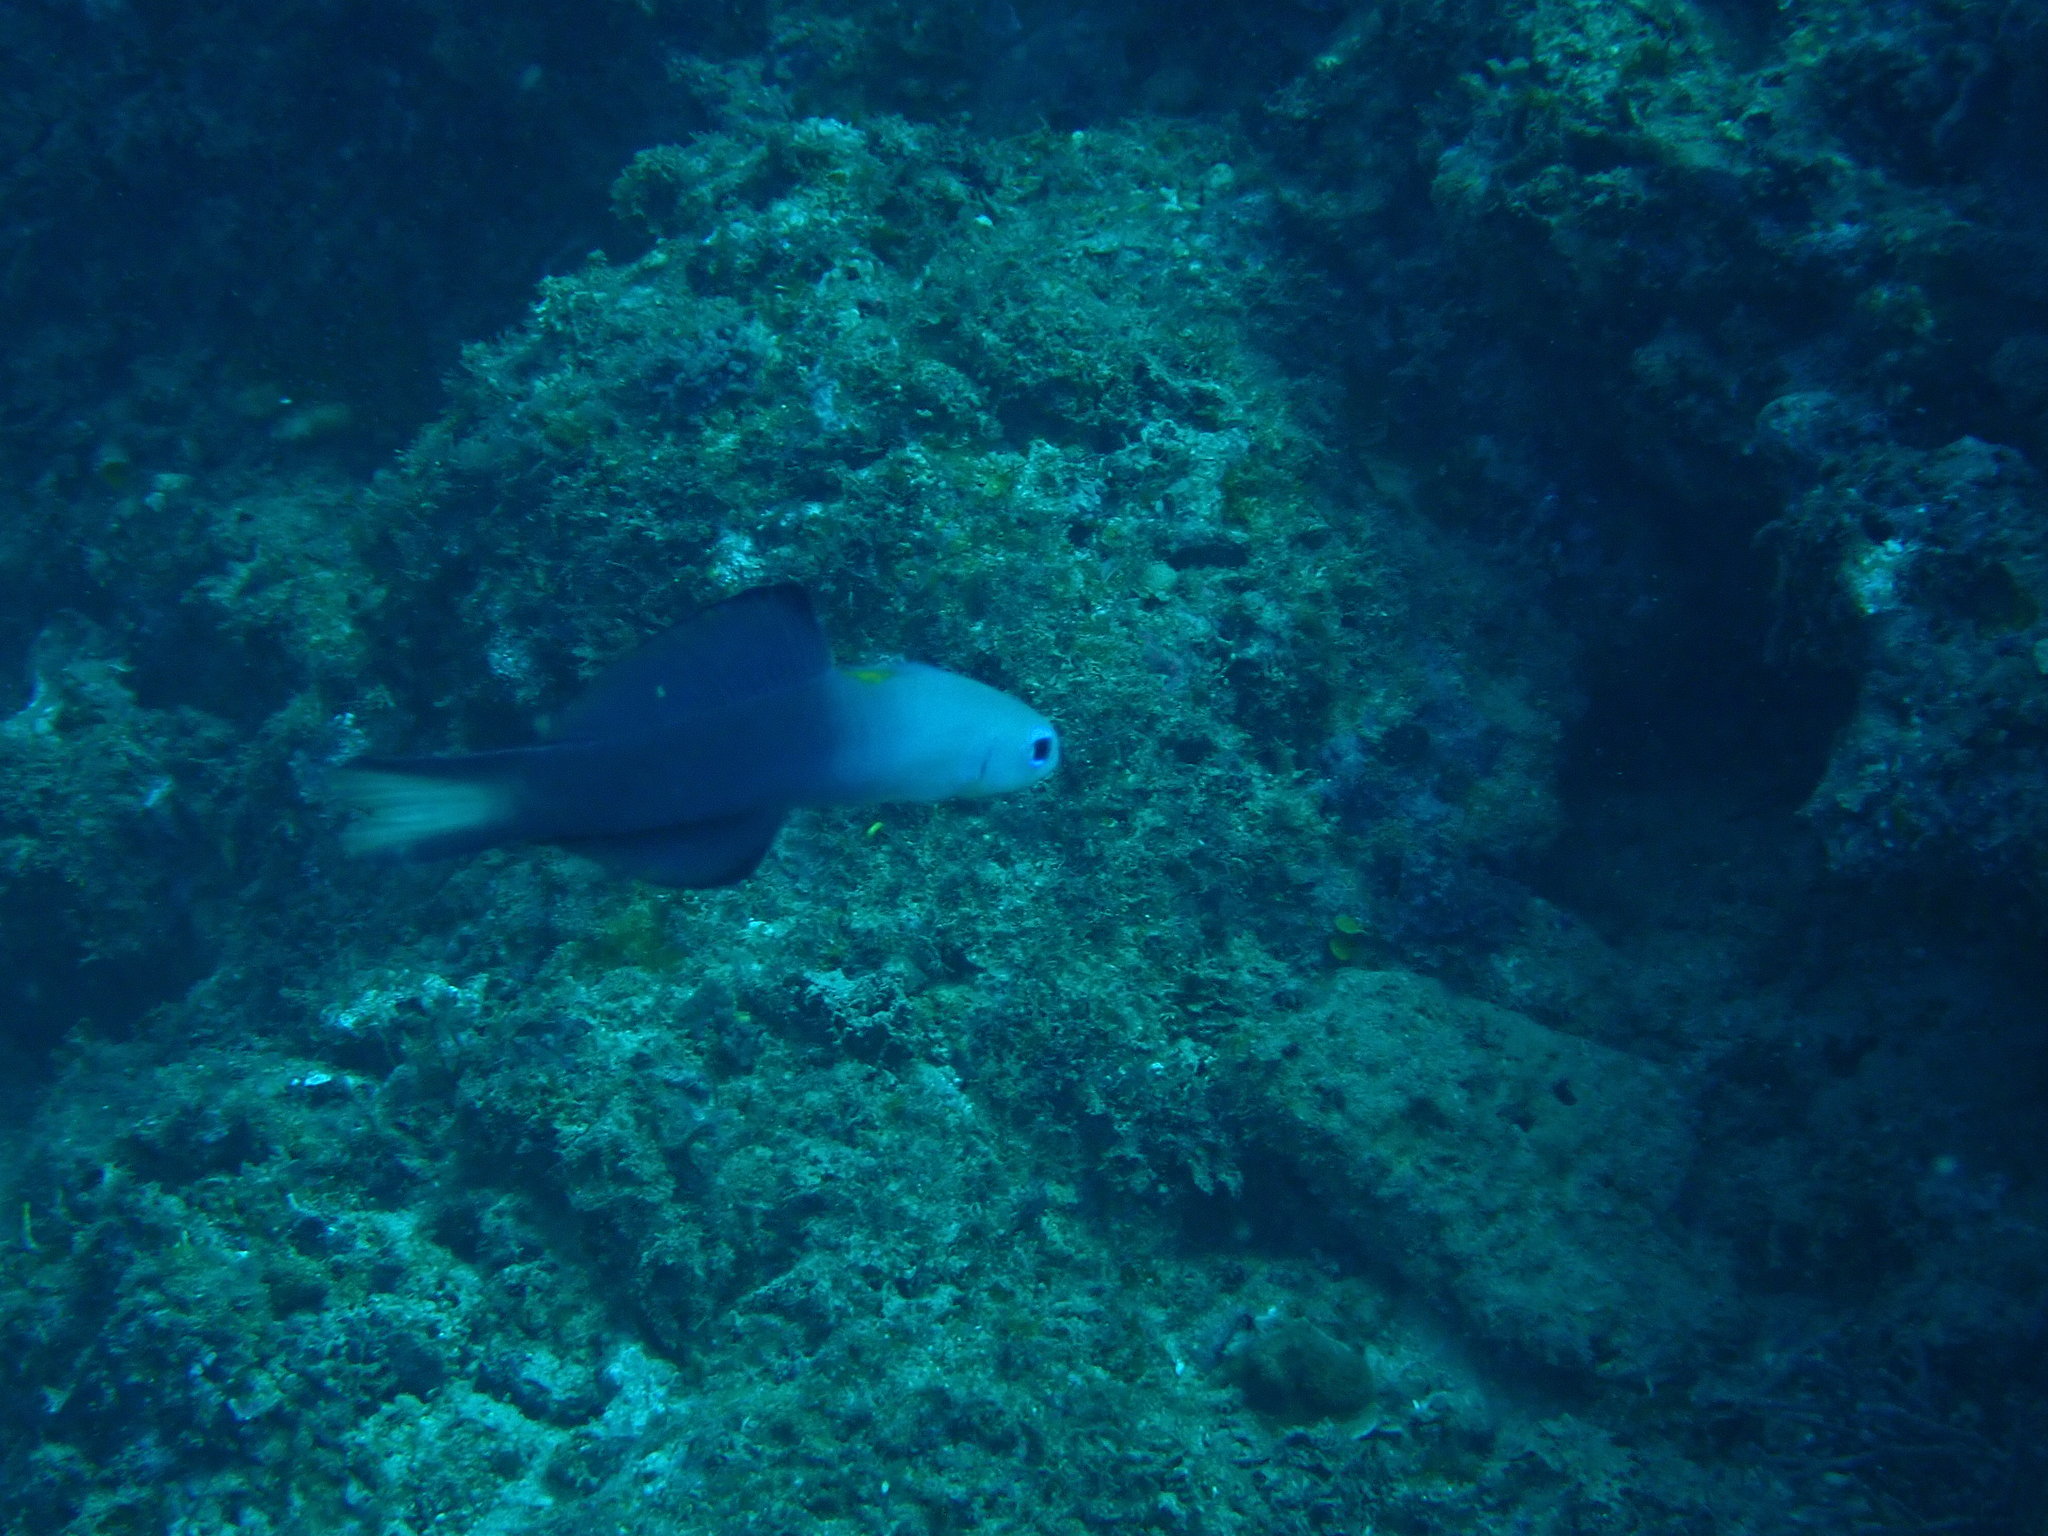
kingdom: Animalia
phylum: Chordata
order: Perciformes
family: Microdesmidae
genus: Ptereleotris
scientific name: Ptereleotris evides
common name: Blackfin dartfish
